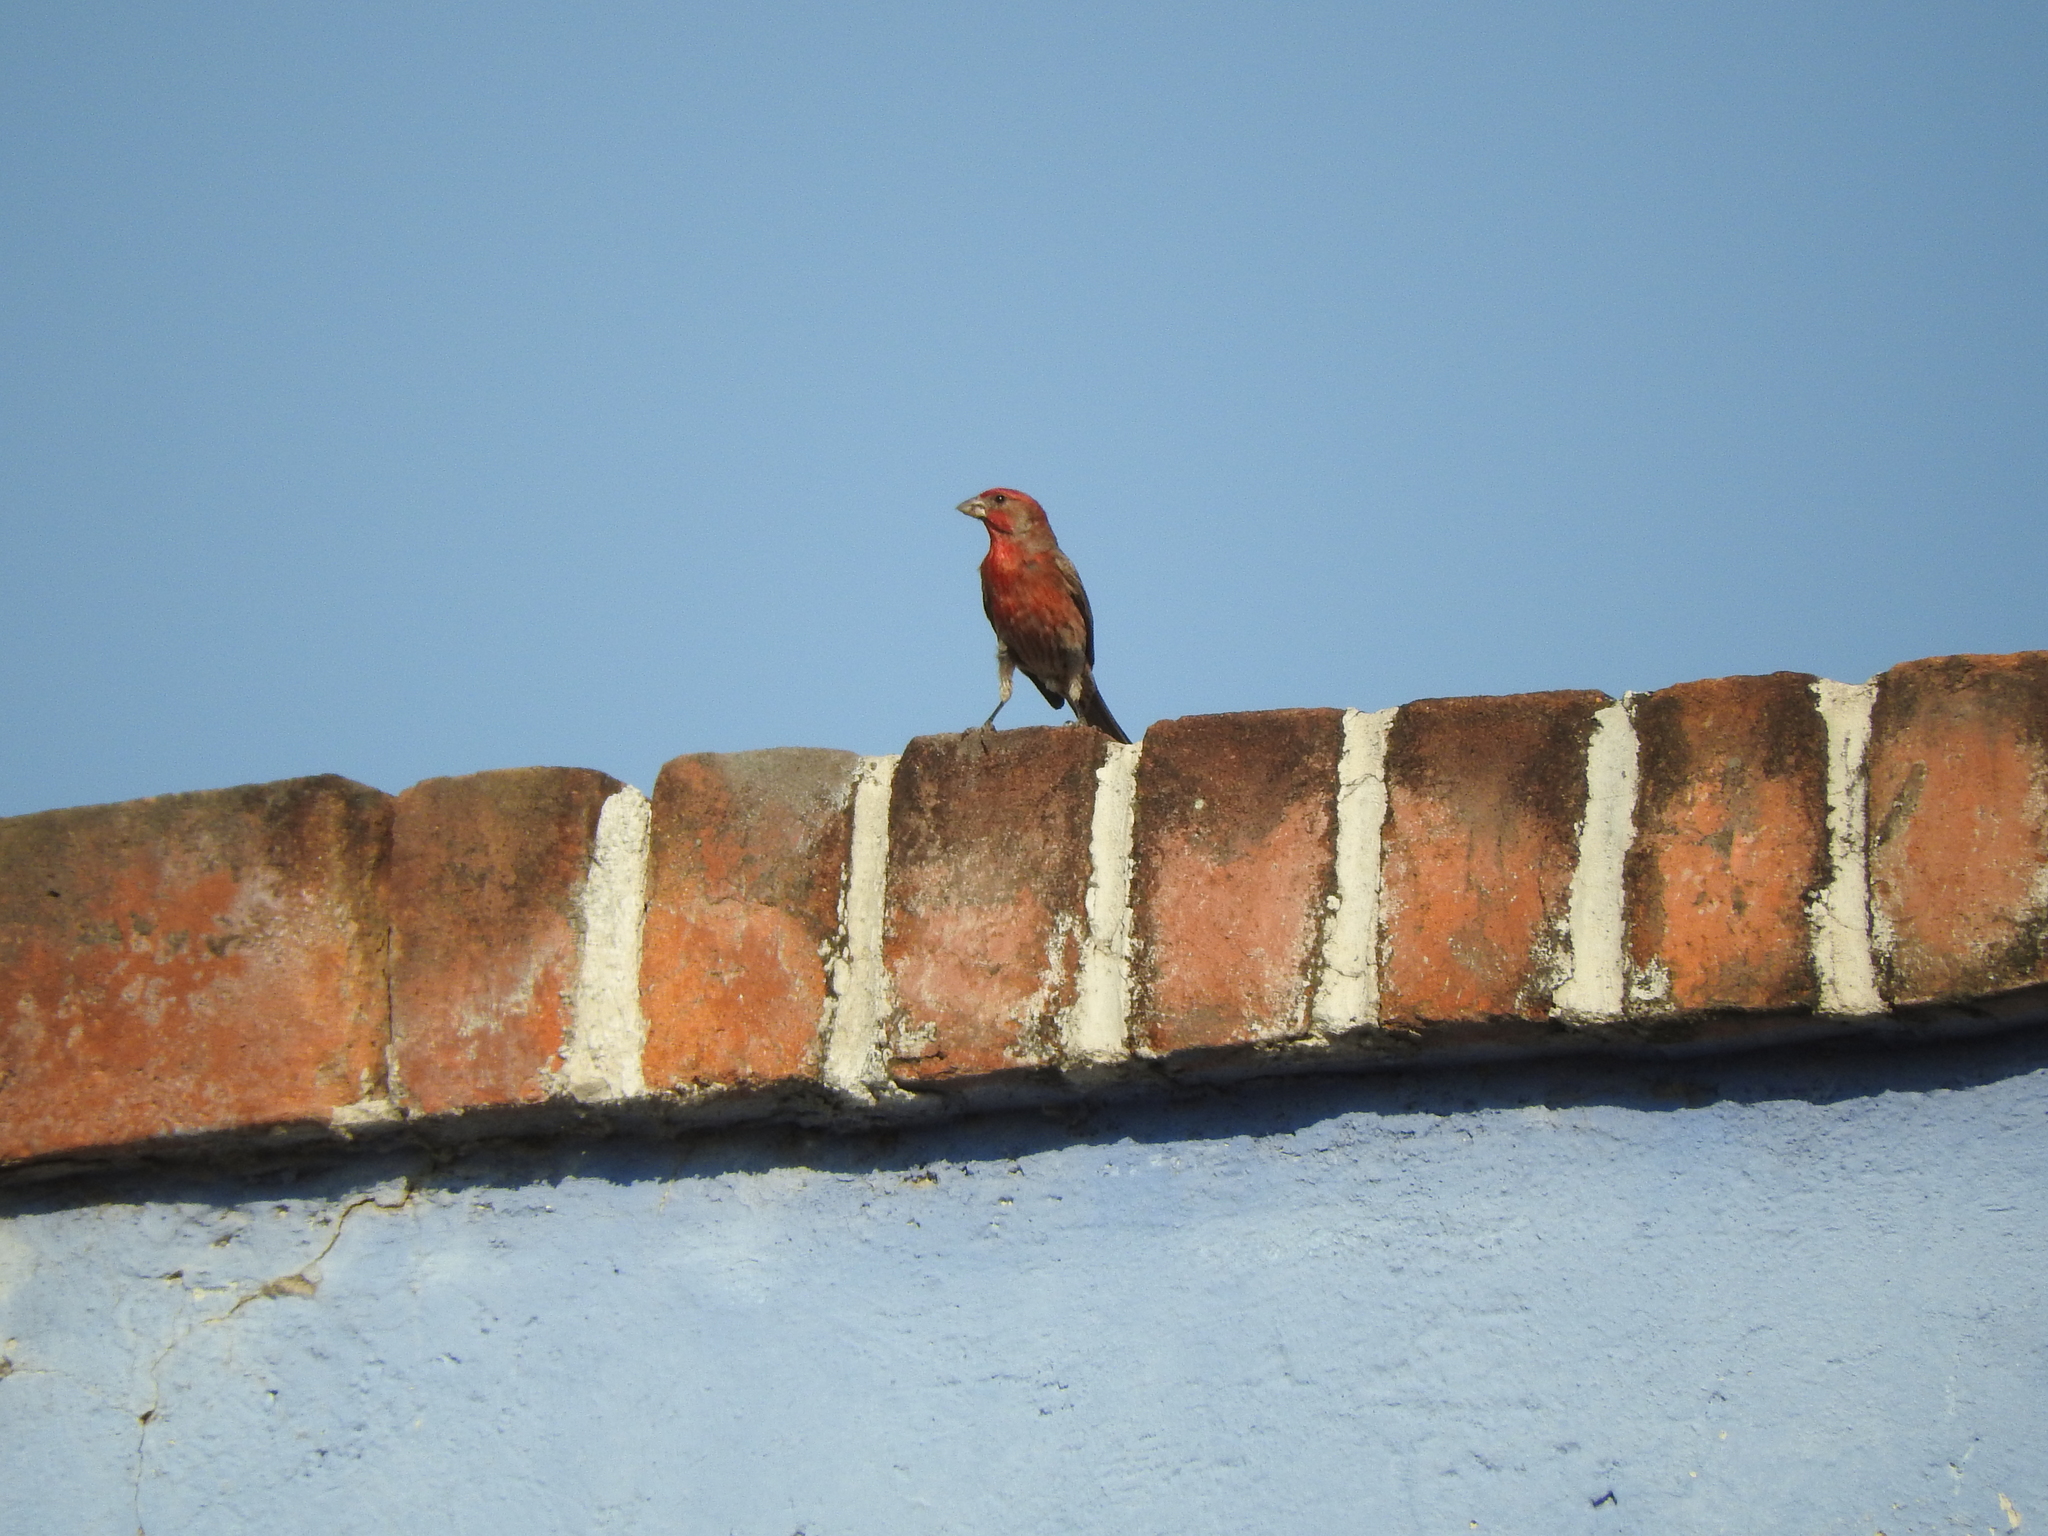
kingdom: Animalia
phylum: Chordata
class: Aves
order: Passeriformes
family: Fringillidae
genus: Haemorhous
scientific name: Haemorhous mexicanus
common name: House finch
